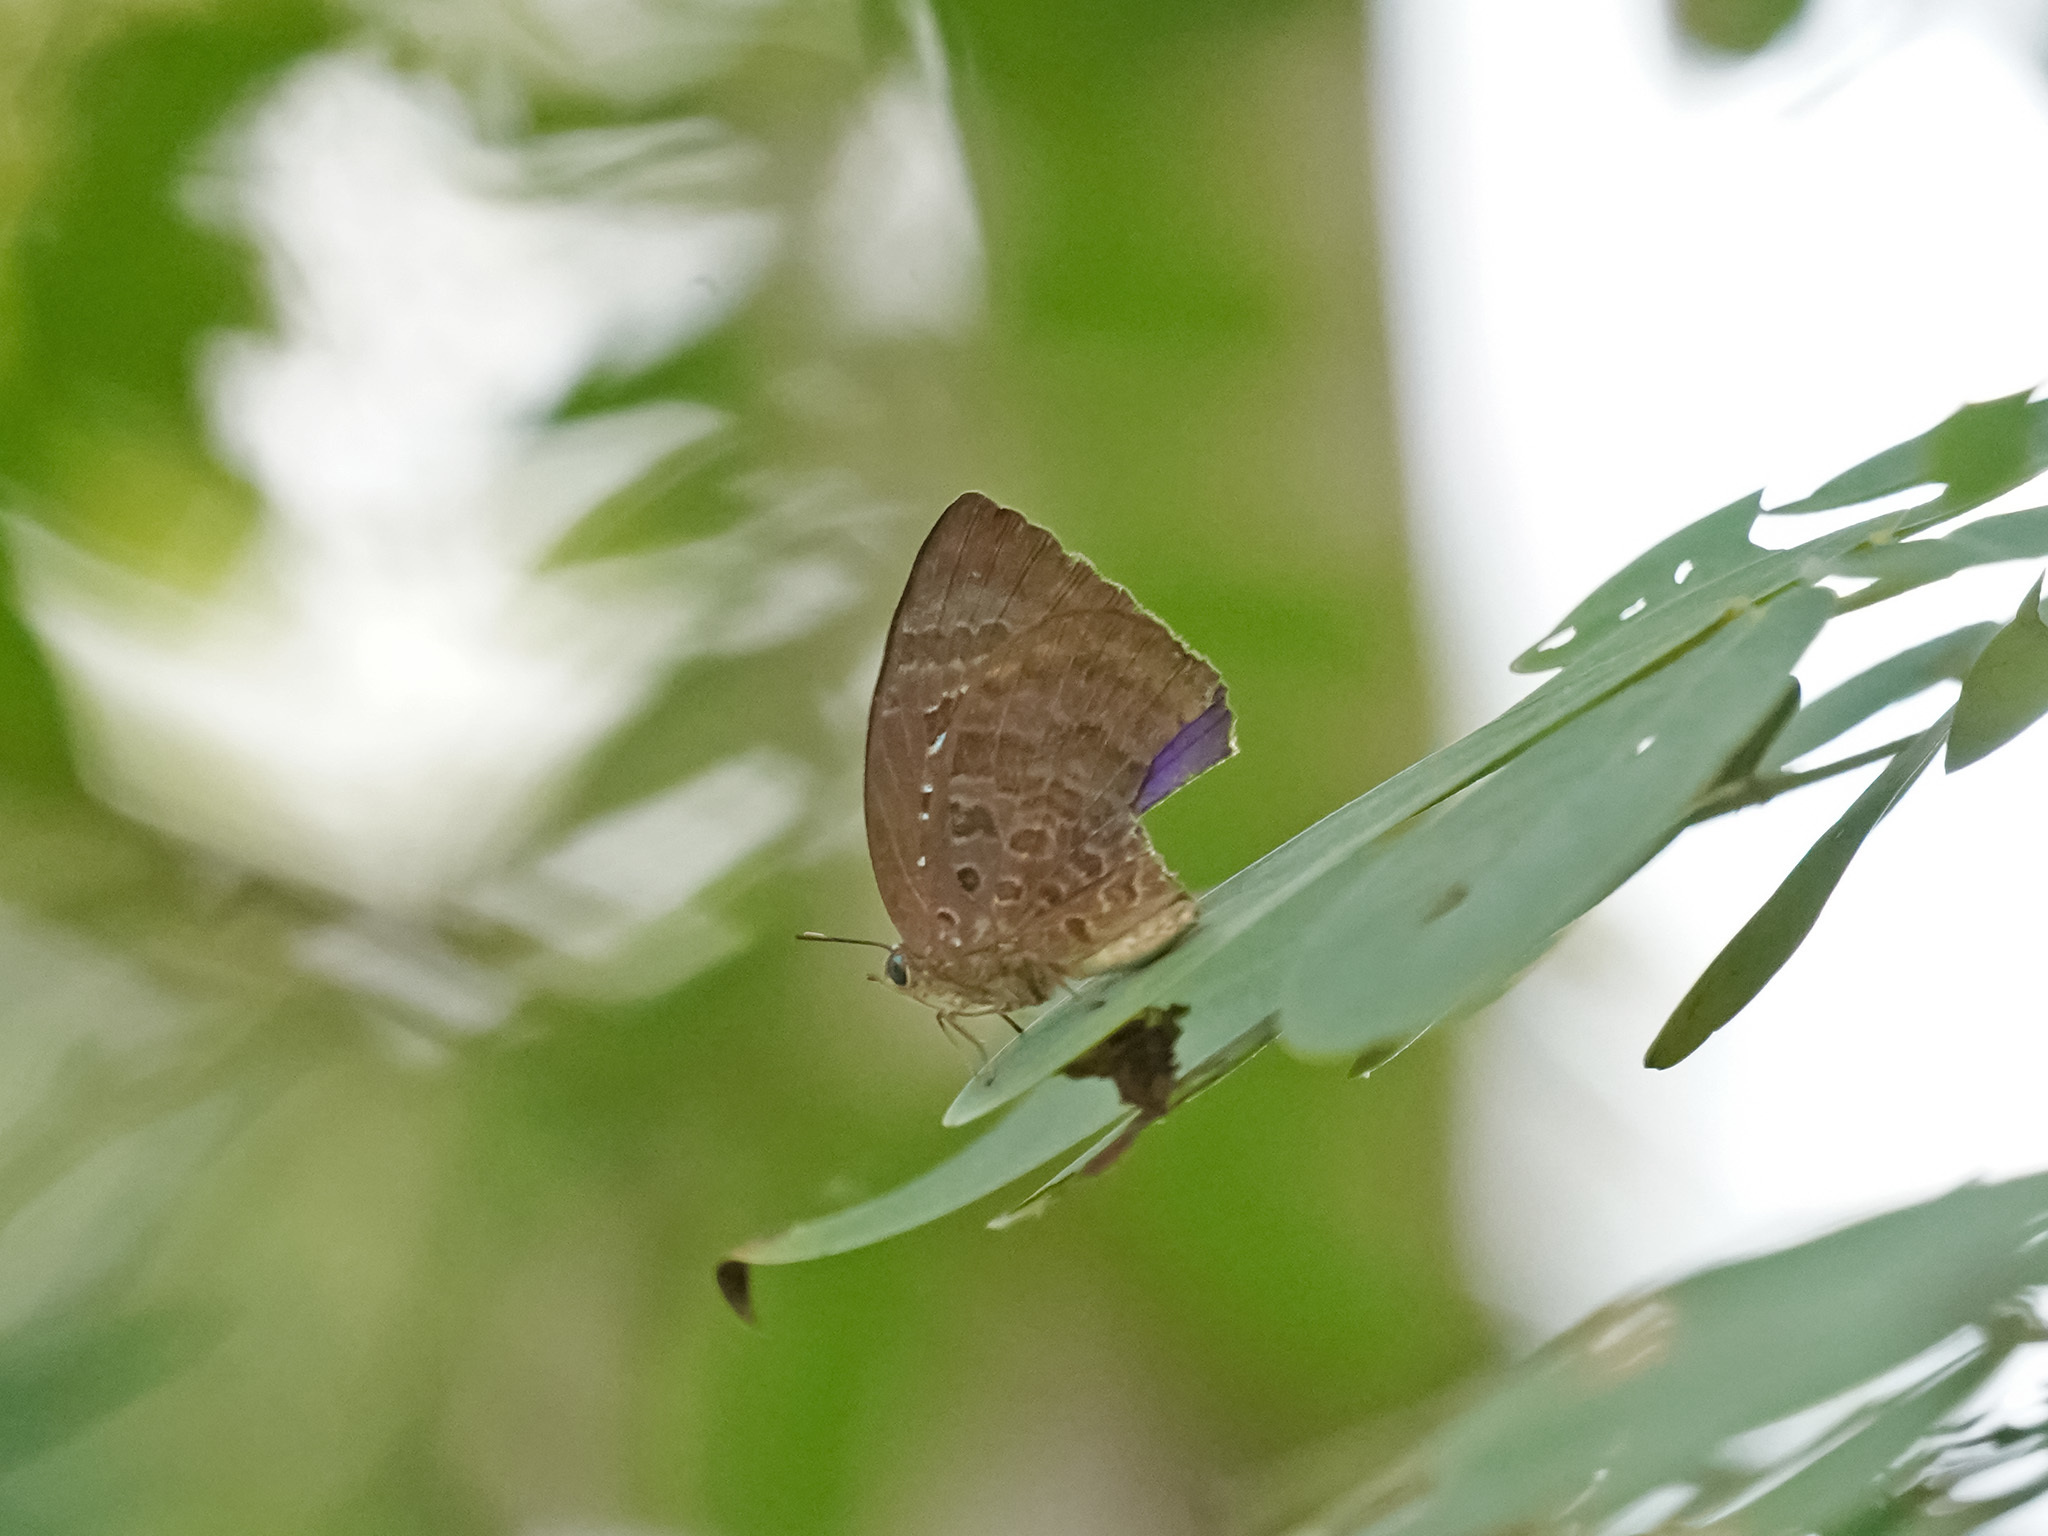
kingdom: Animalia
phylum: Arthropoda
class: Insecta
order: Lepidoptera
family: Lycaenidae
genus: Arhopala
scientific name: Arhopala centaurus
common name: Dull oak-blue
